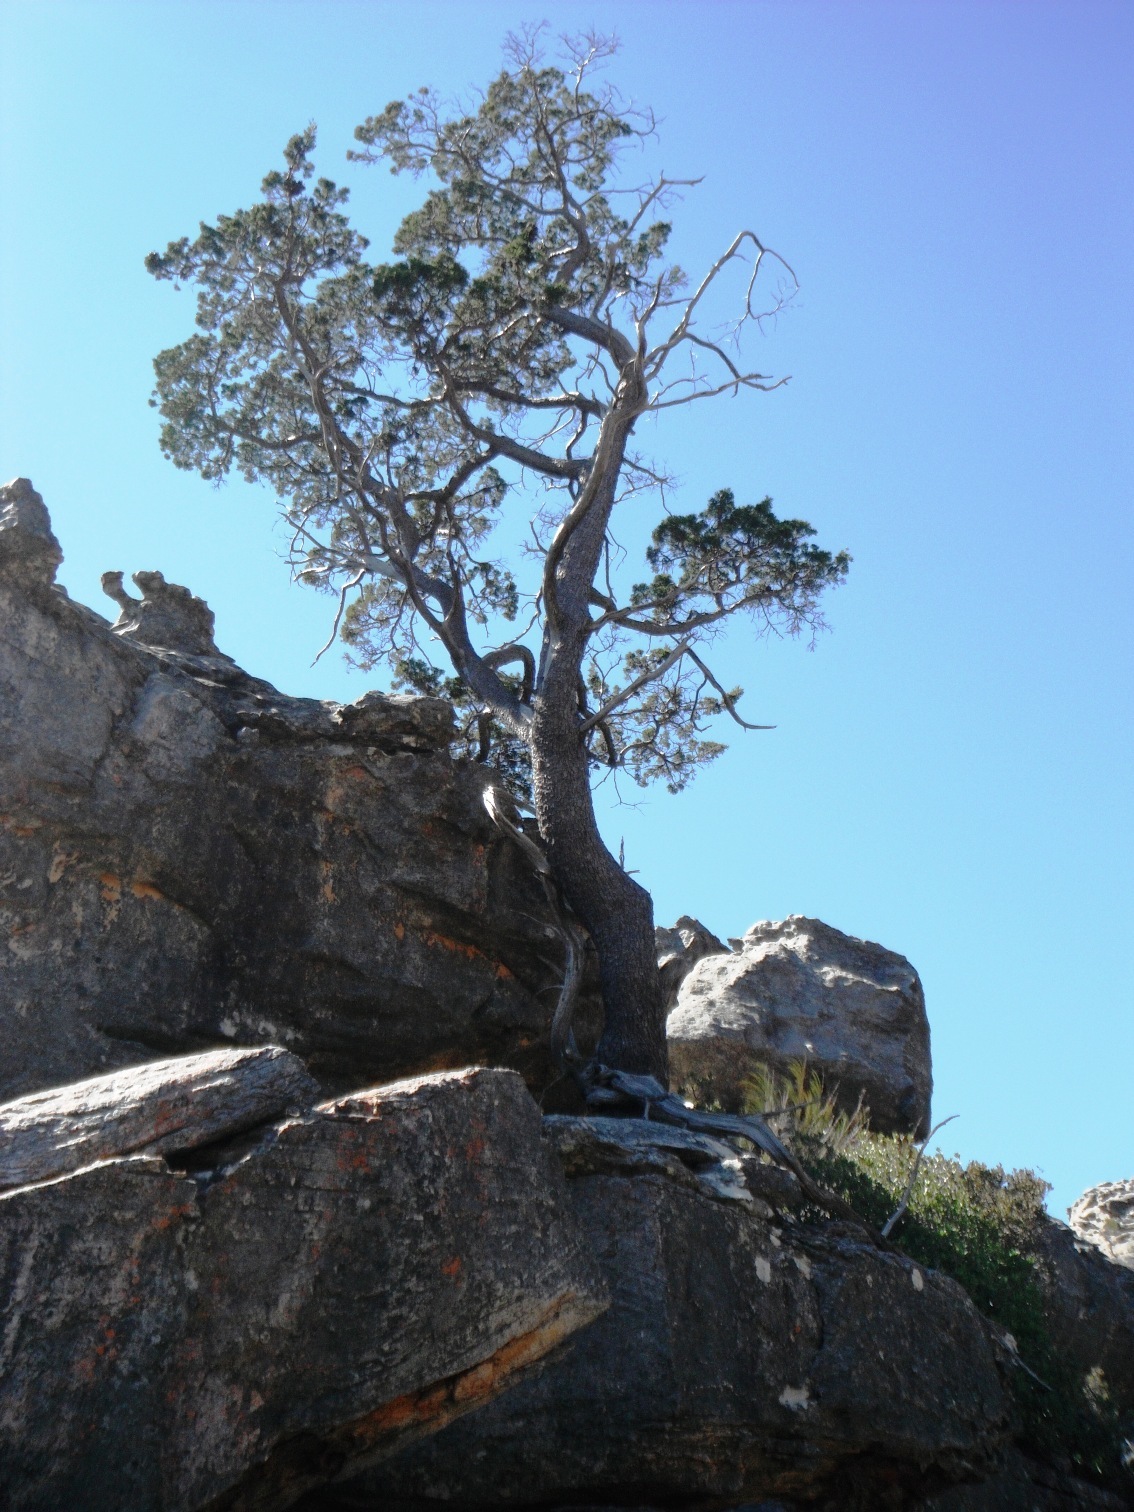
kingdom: Plantae
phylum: Tracheophyta
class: Pinopsida
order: Pinales
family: Cupressaceae
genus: Widdringtonia
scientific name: Widdringtonia nodiflora
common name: Cape cypress
